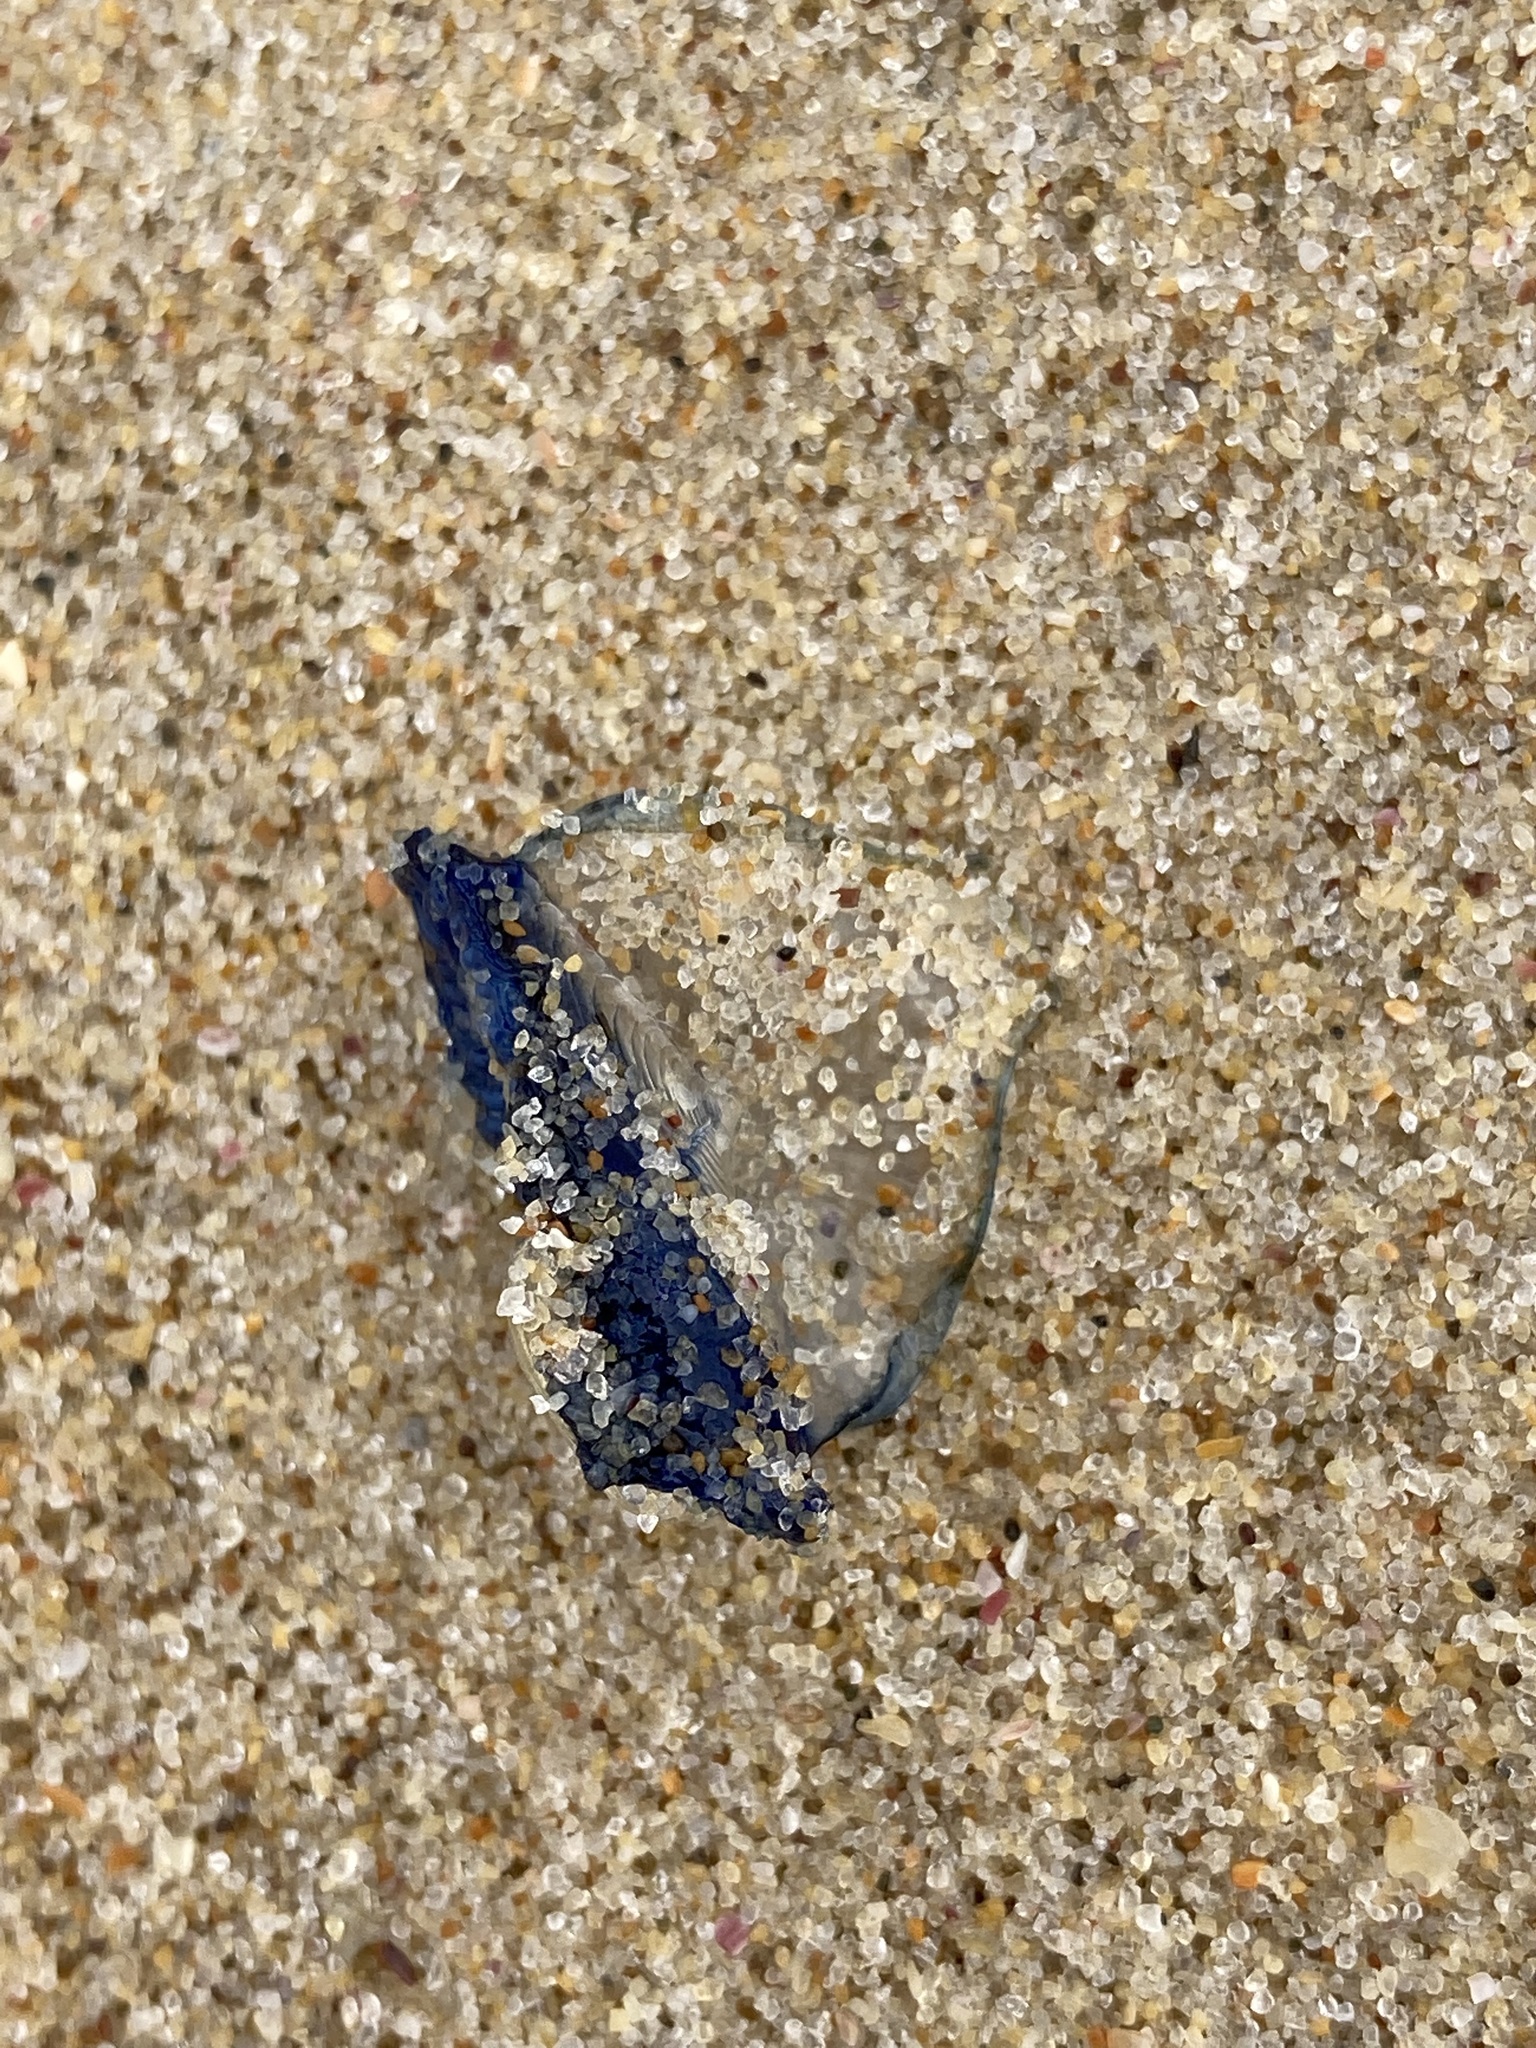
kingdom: Animalia
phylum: Cnidaria
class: Hydrozoa
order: Anthoathecata
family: Porpitidae
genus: Velella
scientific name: Velella velella
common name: By-the-wind-sailor
